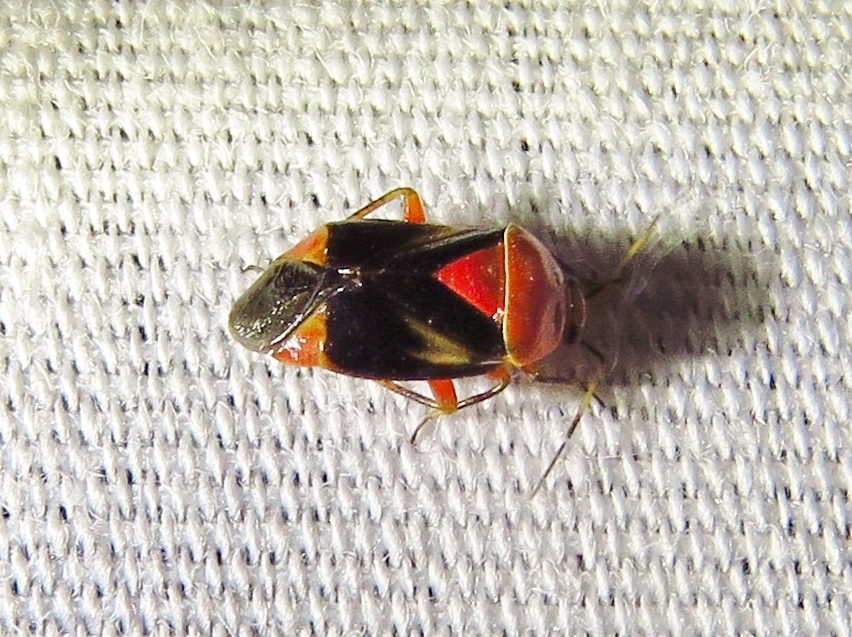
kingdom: Animalia
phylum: Arthropoda
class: Insecta
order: Hemiptera
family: Miridae
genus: Neocapsus
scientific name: Neocapsus cuneatus
